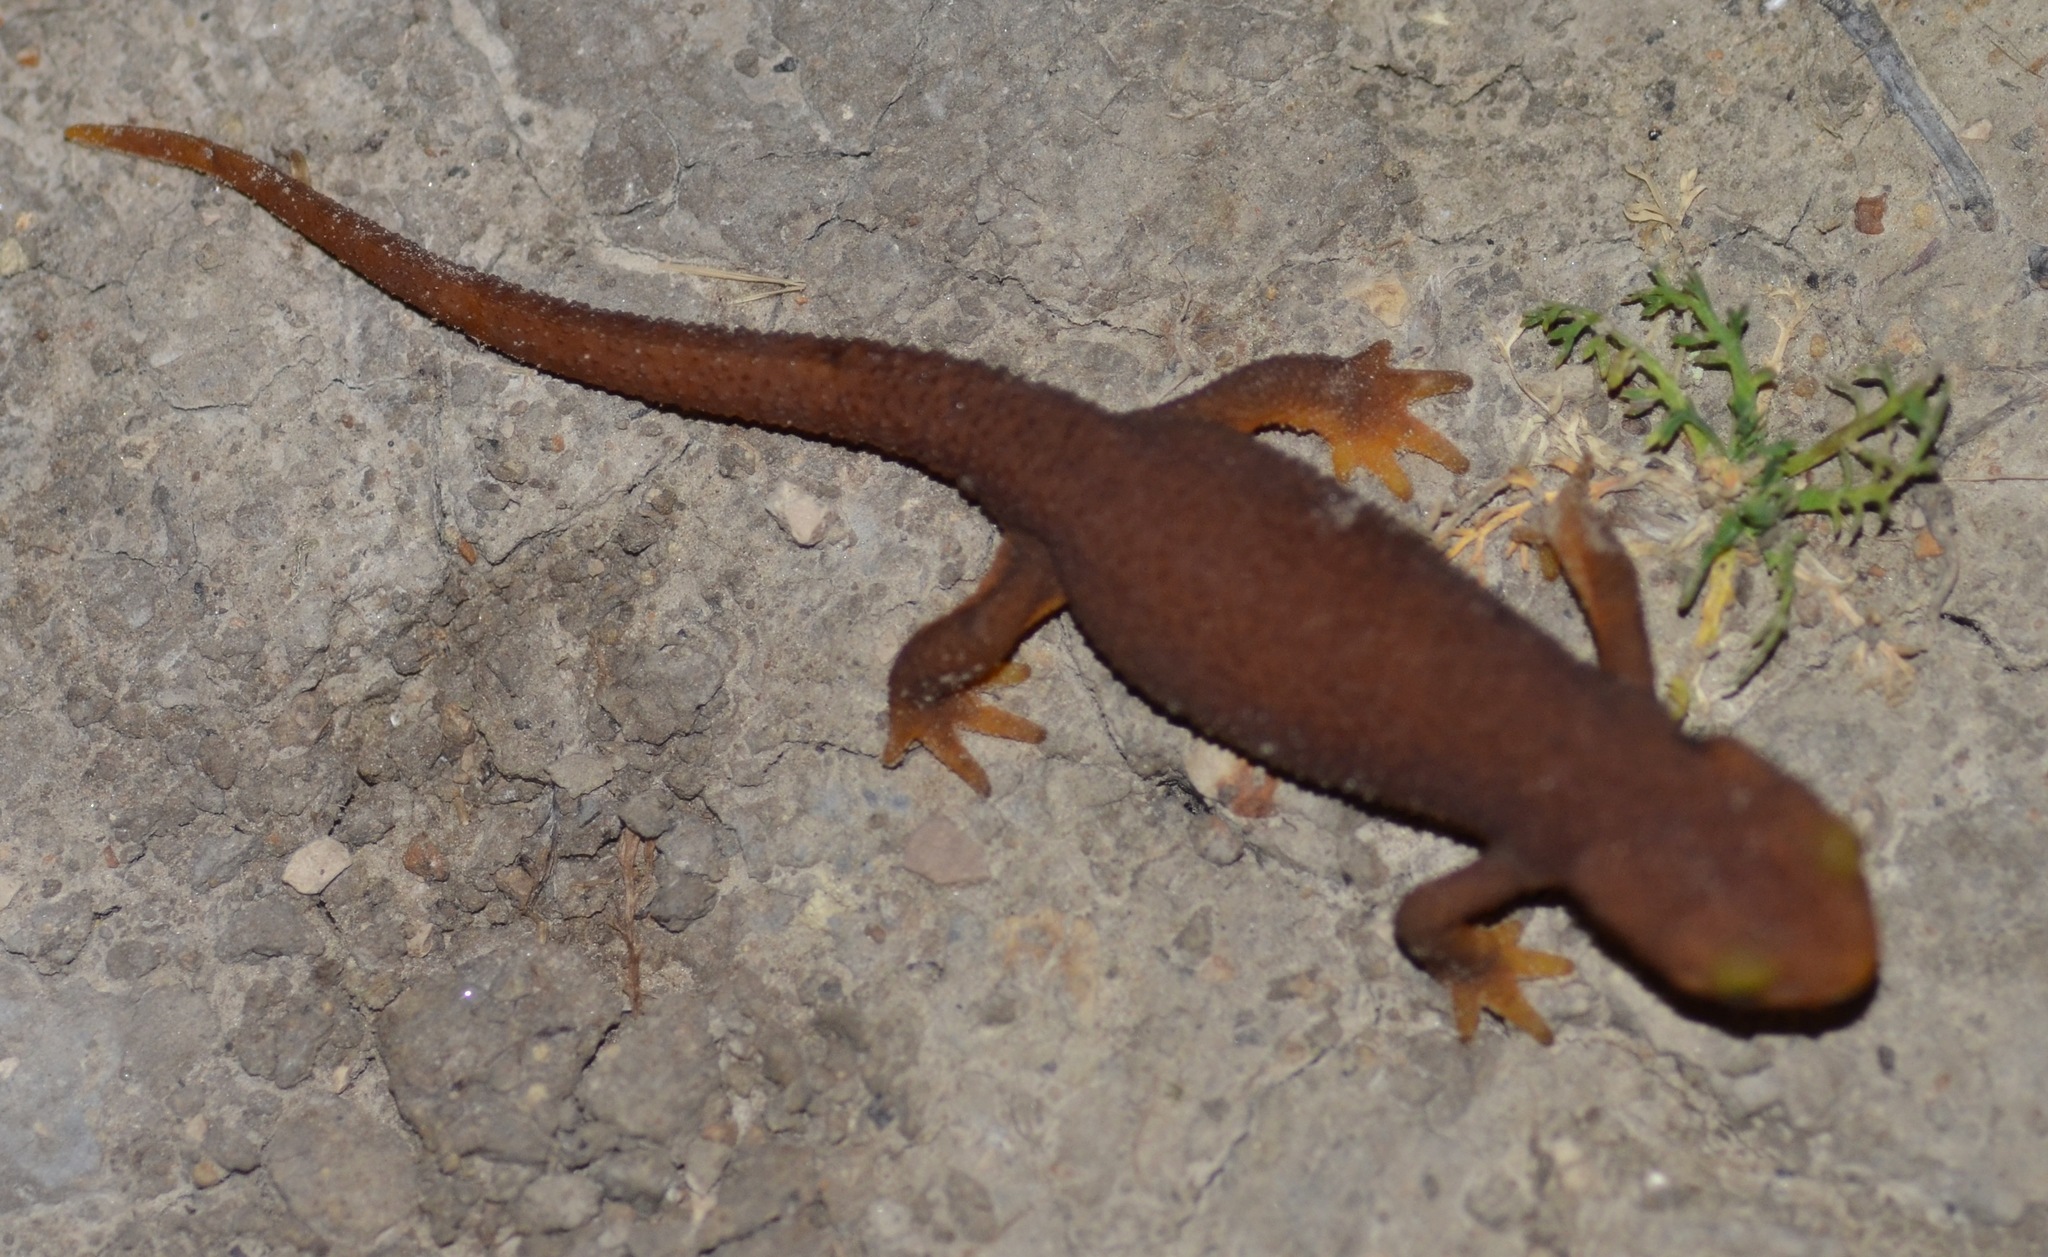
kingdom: Animalia
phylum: Chordata
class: Amphibia
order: Caudata
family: Salamandridae
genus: Taricha
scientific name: Taricha torosa
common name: California newt
